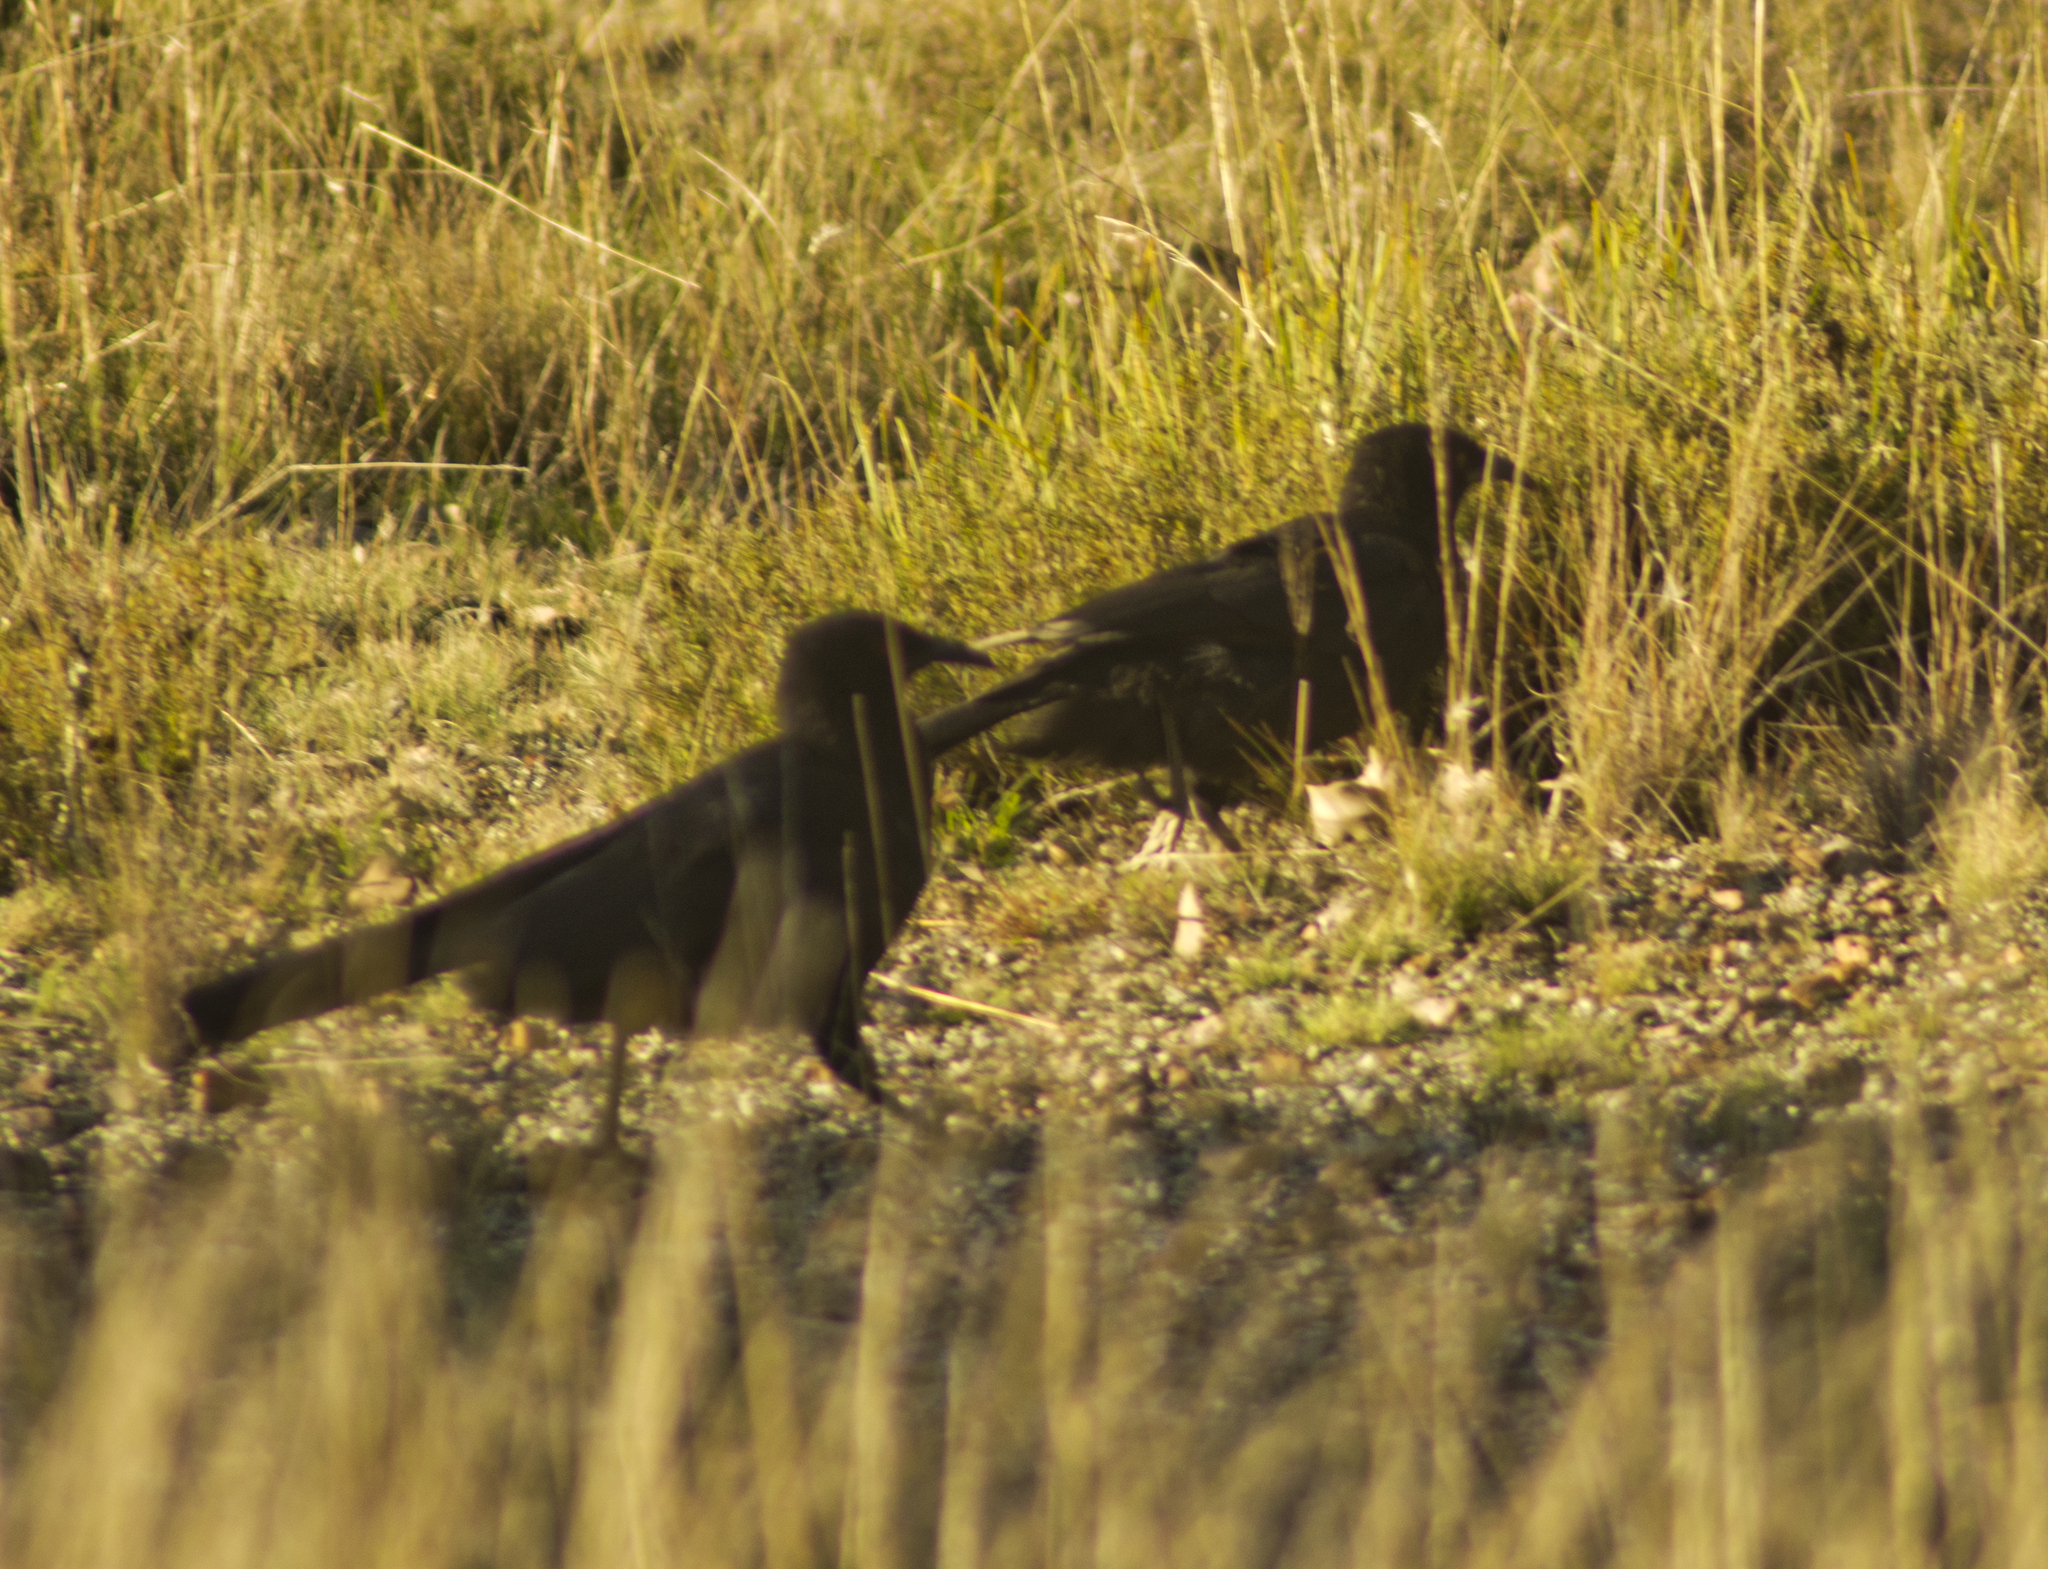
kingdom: Animalia
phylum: Chordata
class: Aves
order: Passeriformes
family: Corcoracidae
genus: Corcorax
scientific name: Corcorax melanoramphos
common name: White-winged chough
